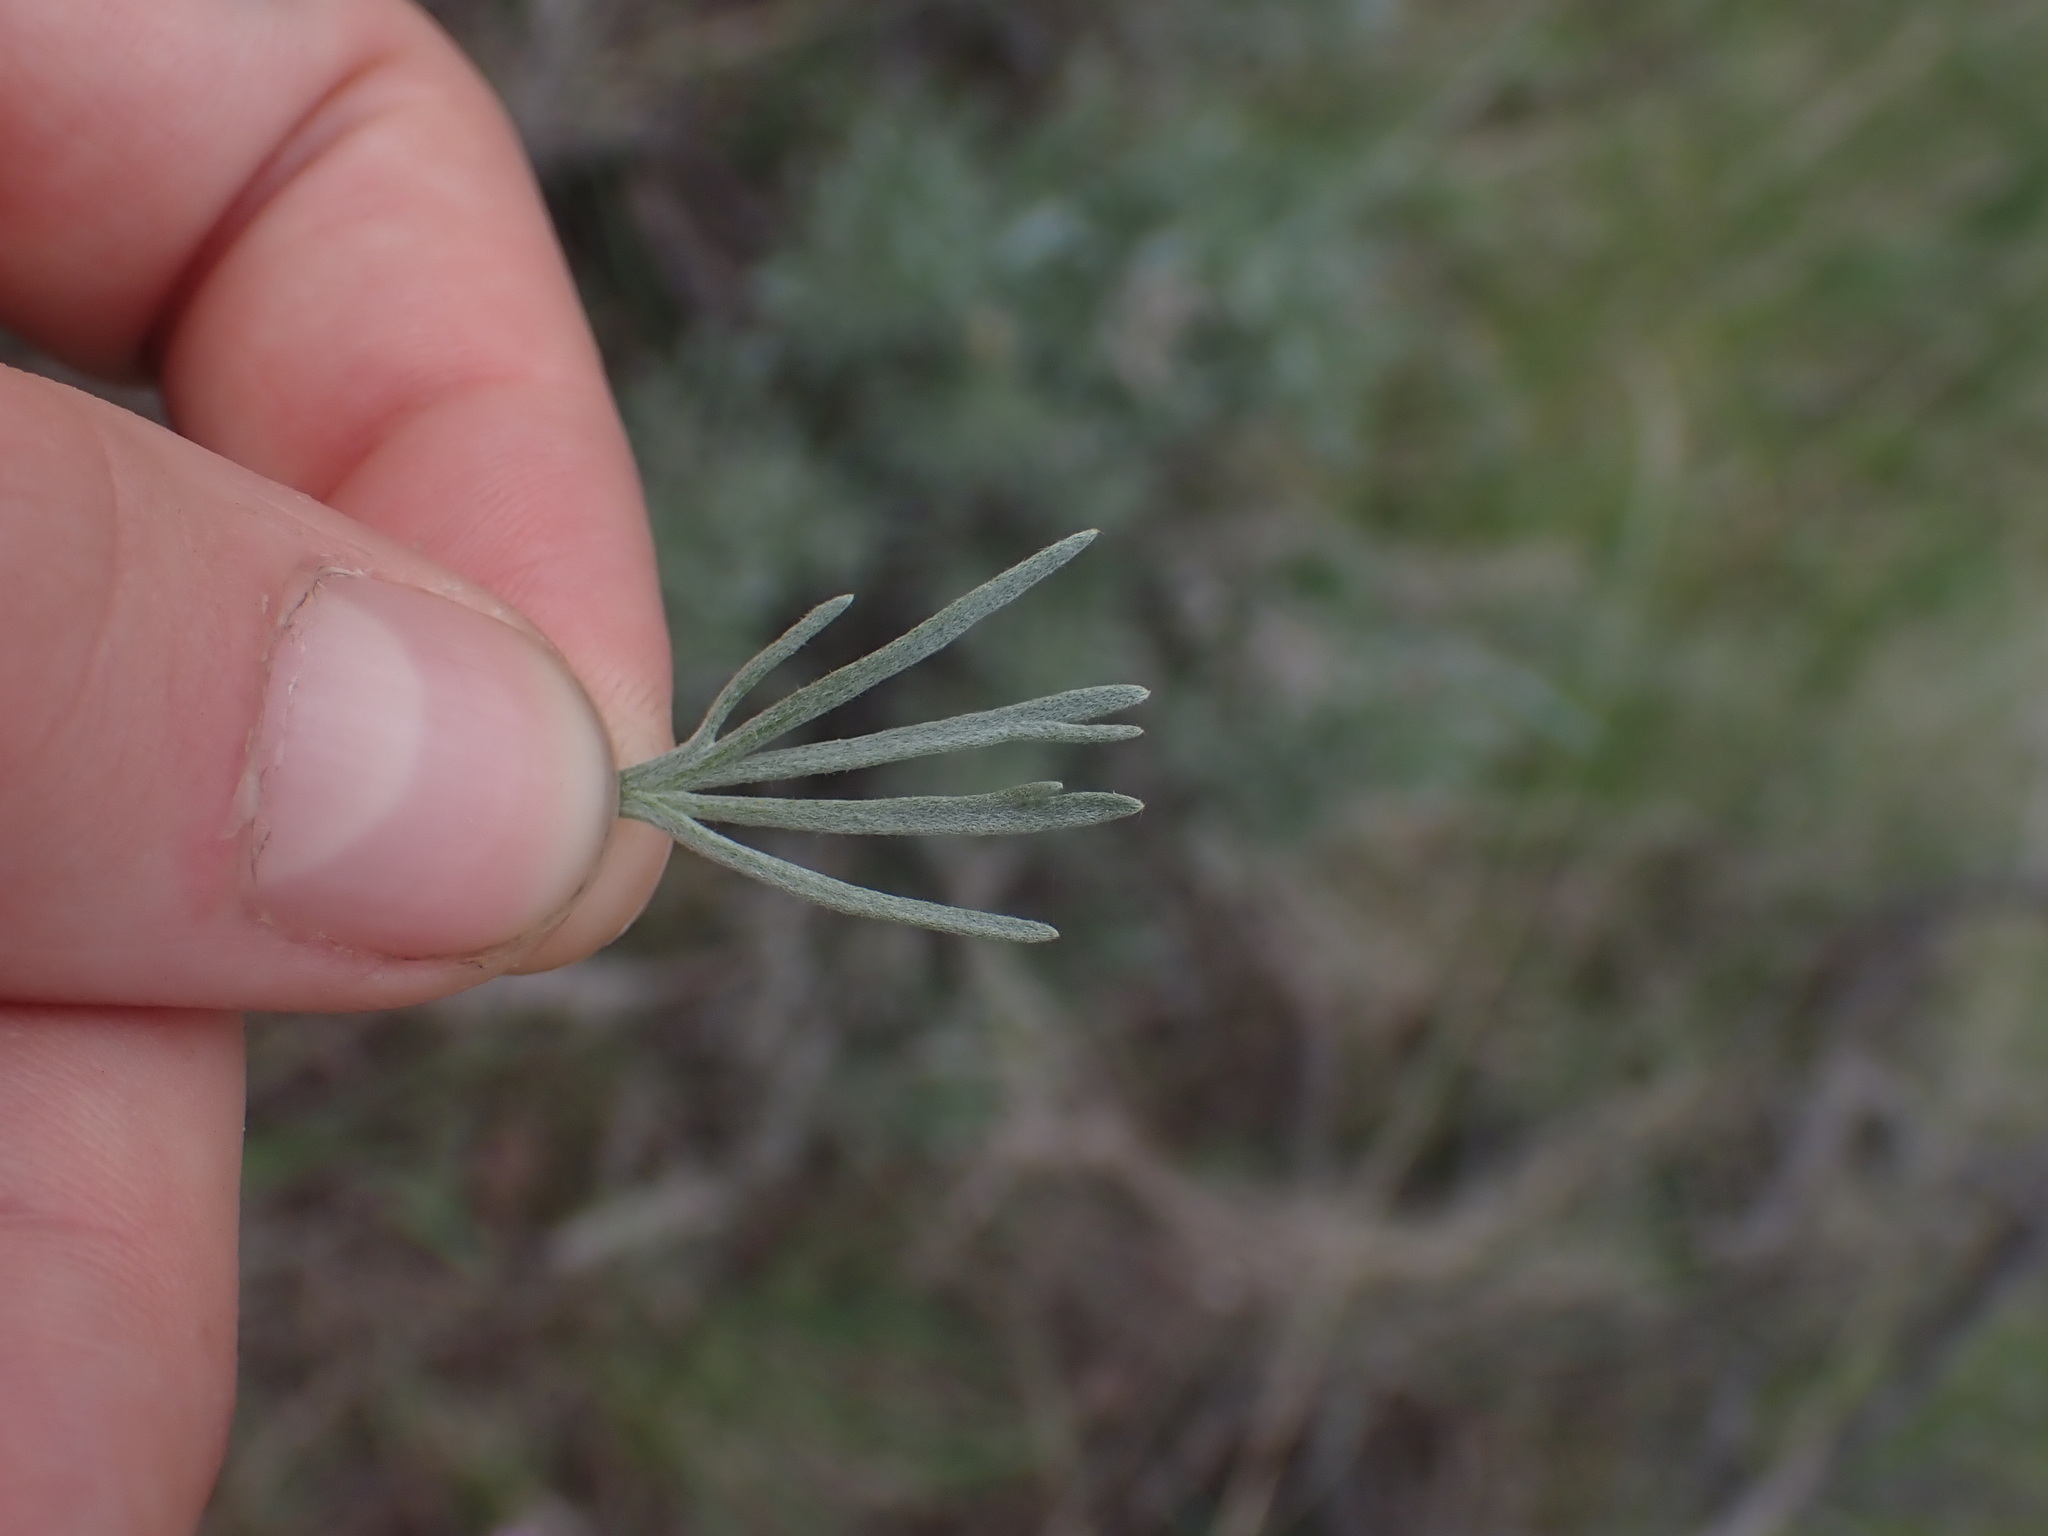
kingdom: Plantae
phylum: Tracheophyta
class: Magnoliopsida
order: Asterales
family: Asteraceae
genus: Artemisia
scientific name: Artemisia tripartita
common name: Three-tip sagebrush
